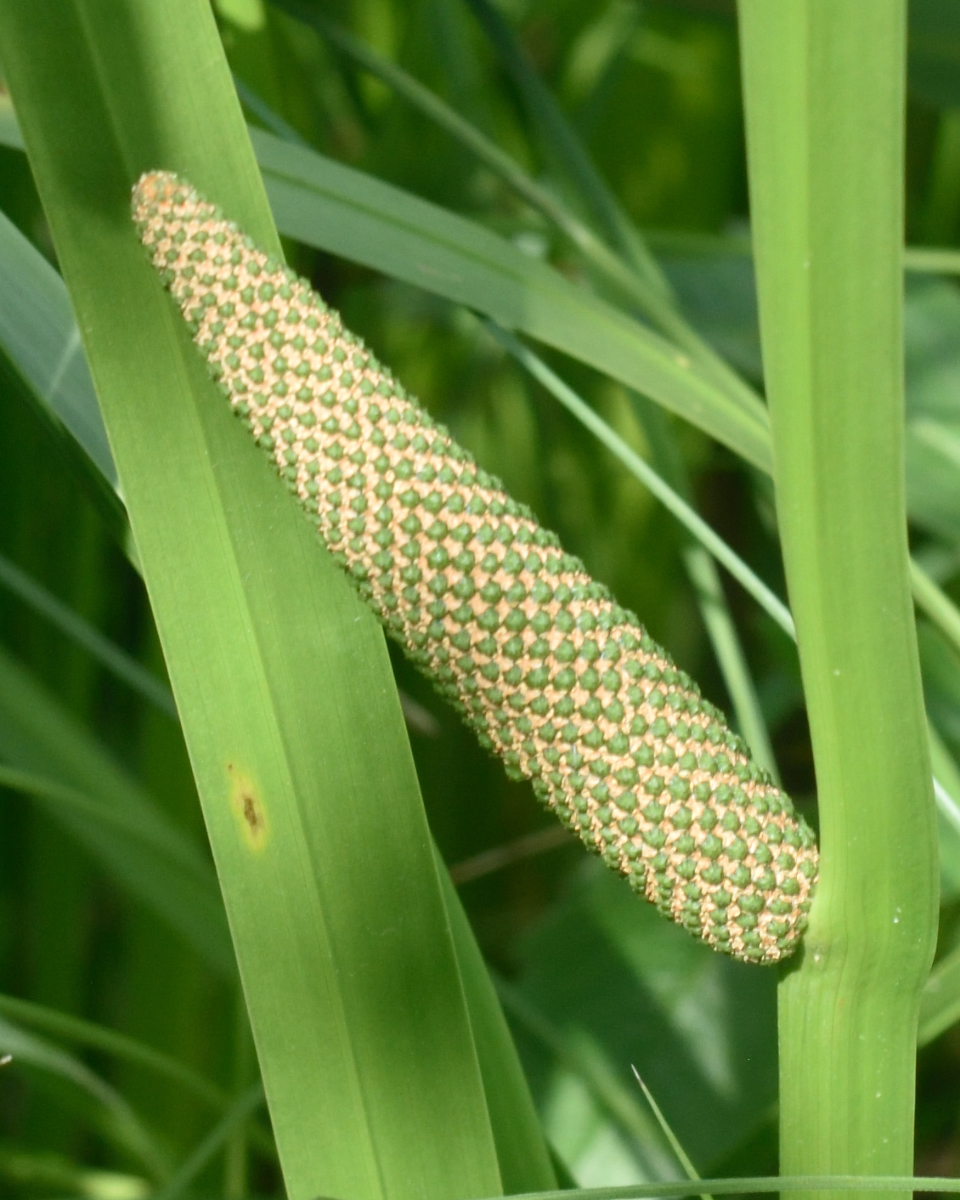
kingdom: Plantae
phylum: Tracheophyta
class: Liliopsida
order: Acorales
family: Acoraceae
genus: Acorus
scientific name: Acorus calamus
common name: Sweet-flag
